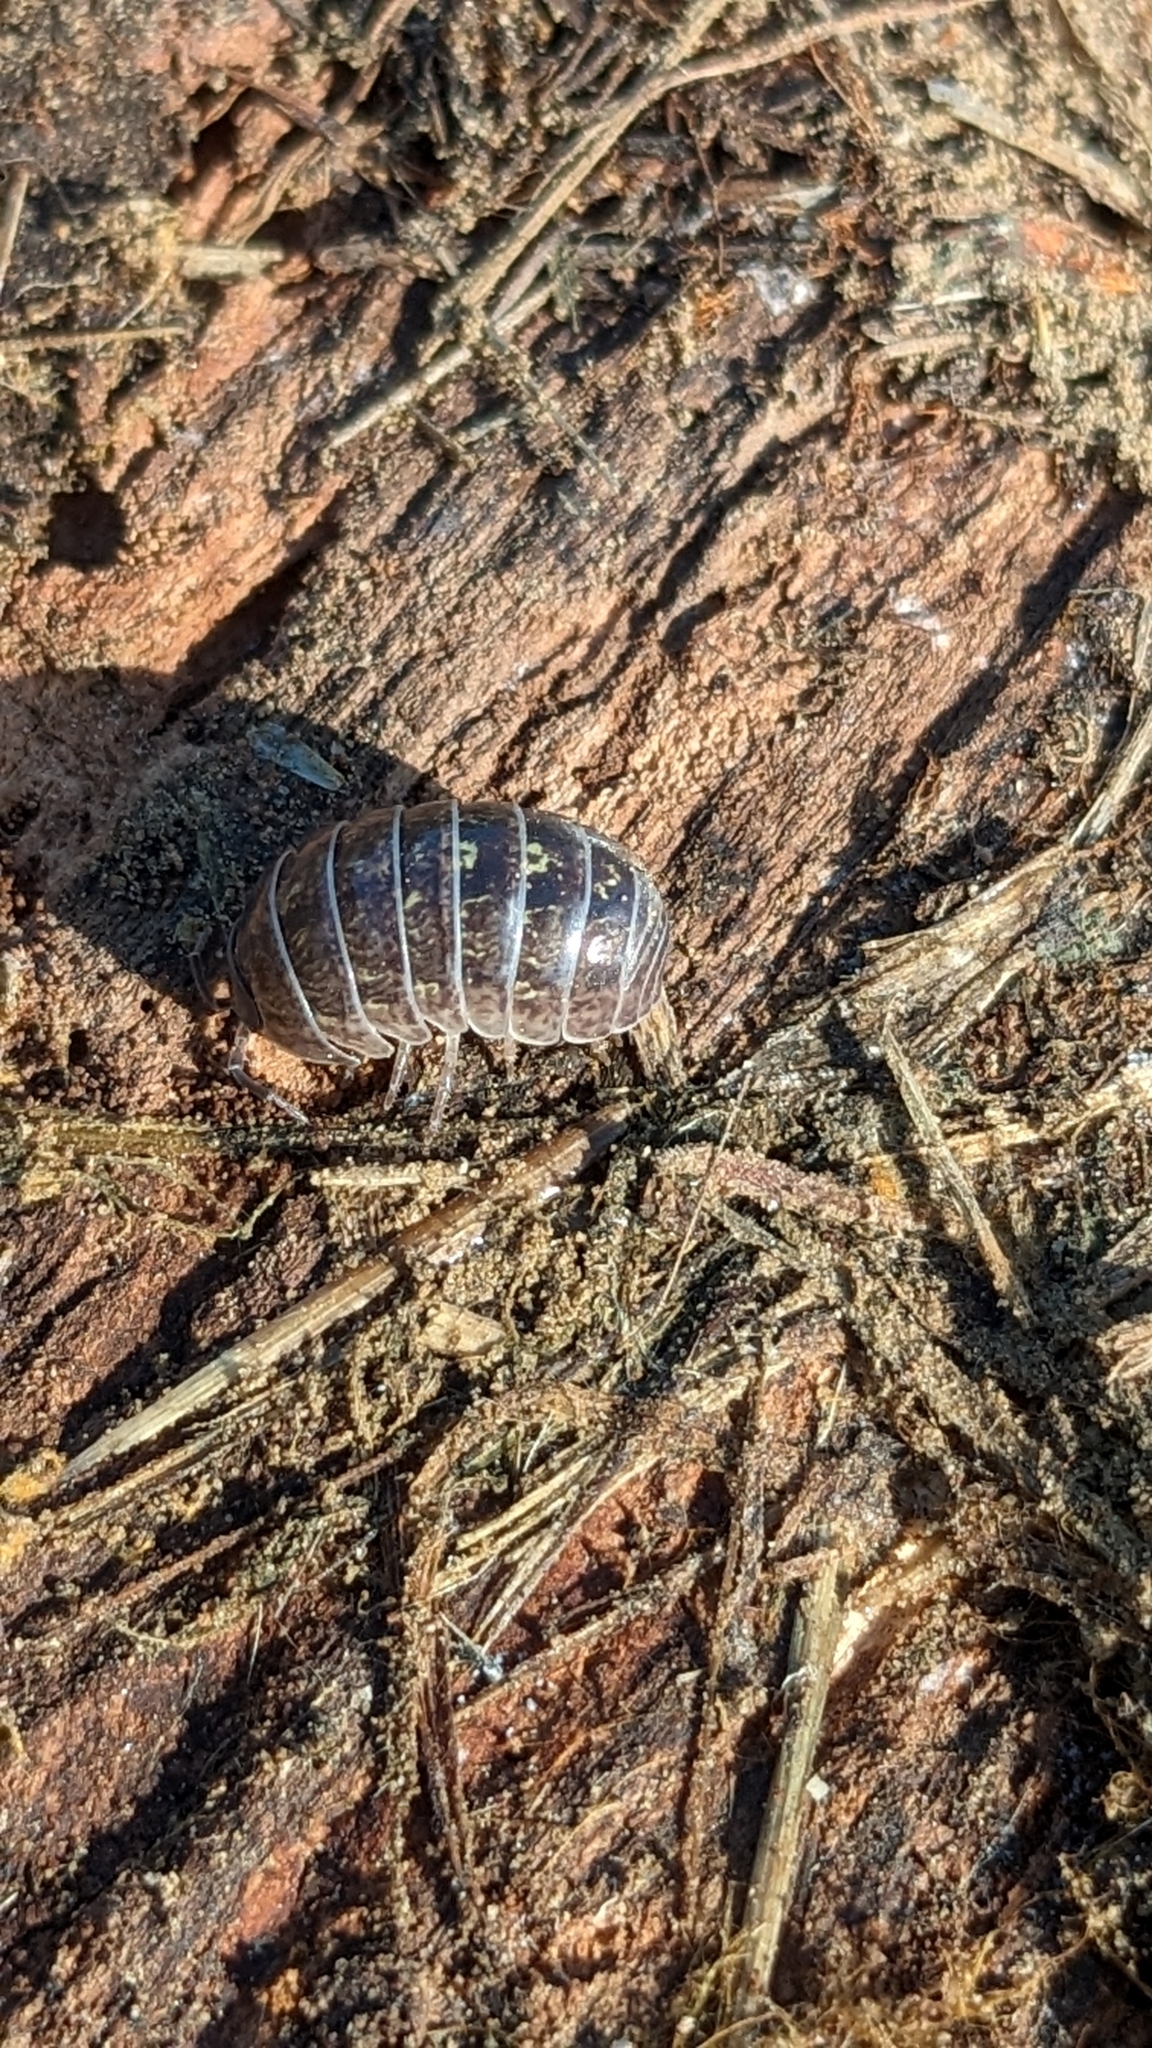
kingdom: Animalia
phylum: Arthropoda
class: Malacostraca
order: Isopoda
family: Armadillidiidae
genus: Armadillidium
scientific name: Armadillidium vulgare
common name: Common pill woodlouse
